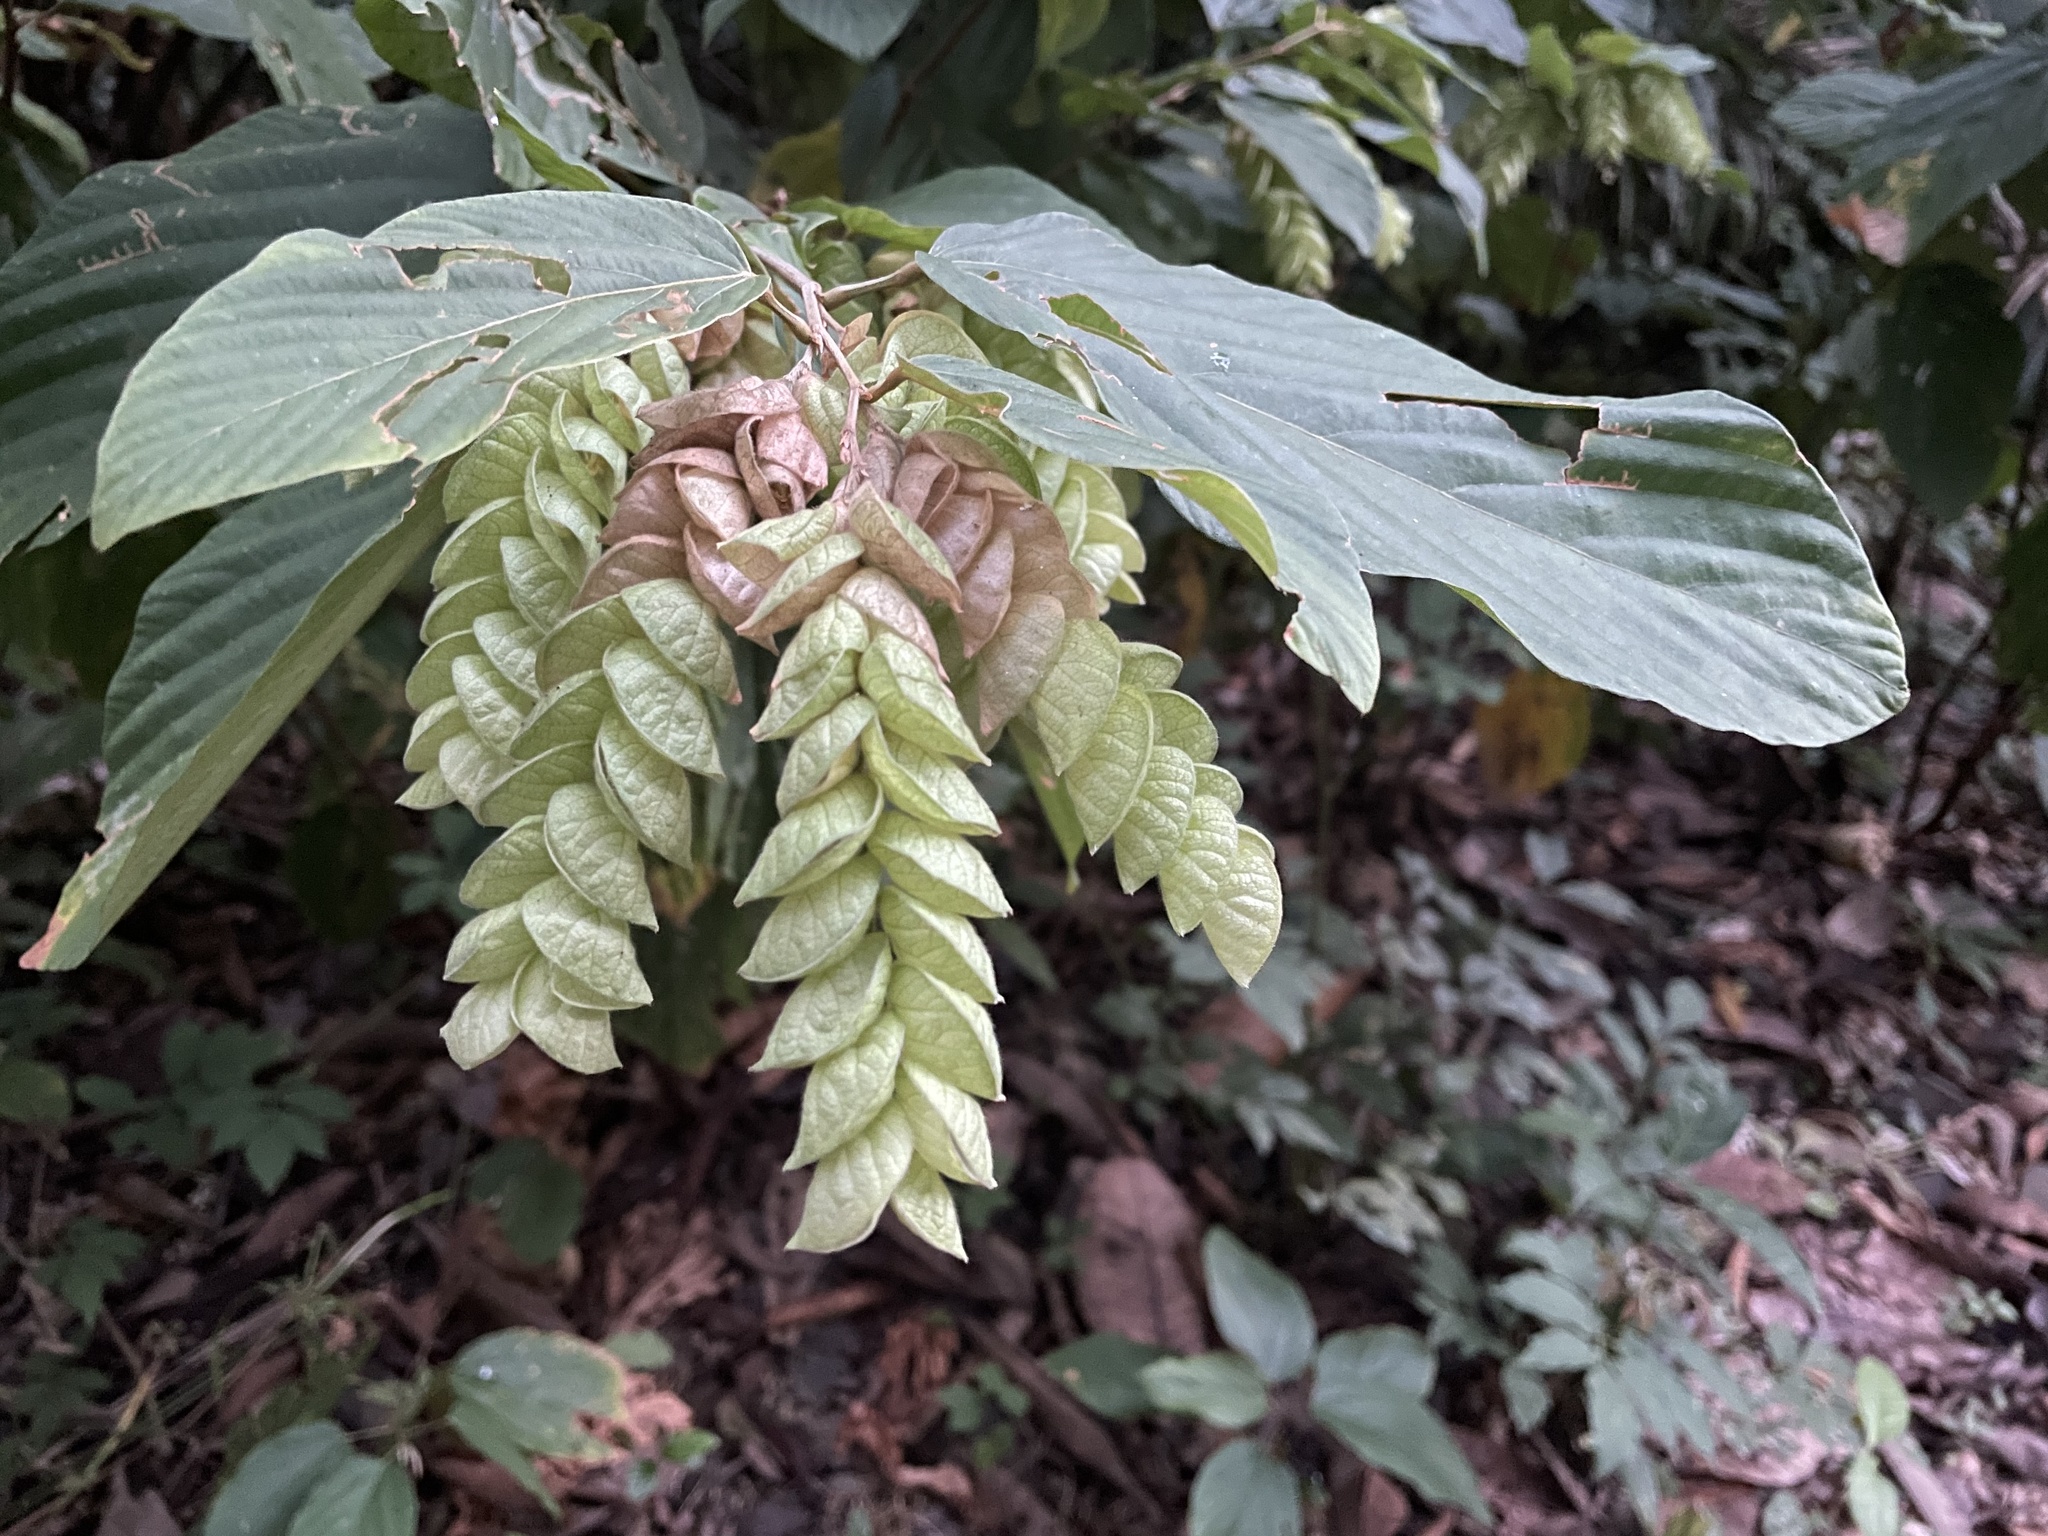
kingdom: Plantae
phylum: Tracheophyta
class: Magnoliopsida
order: Fabales
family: Fabaceae
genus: Flemingia
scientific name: Flemingia strobilifera
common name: Wild hops
